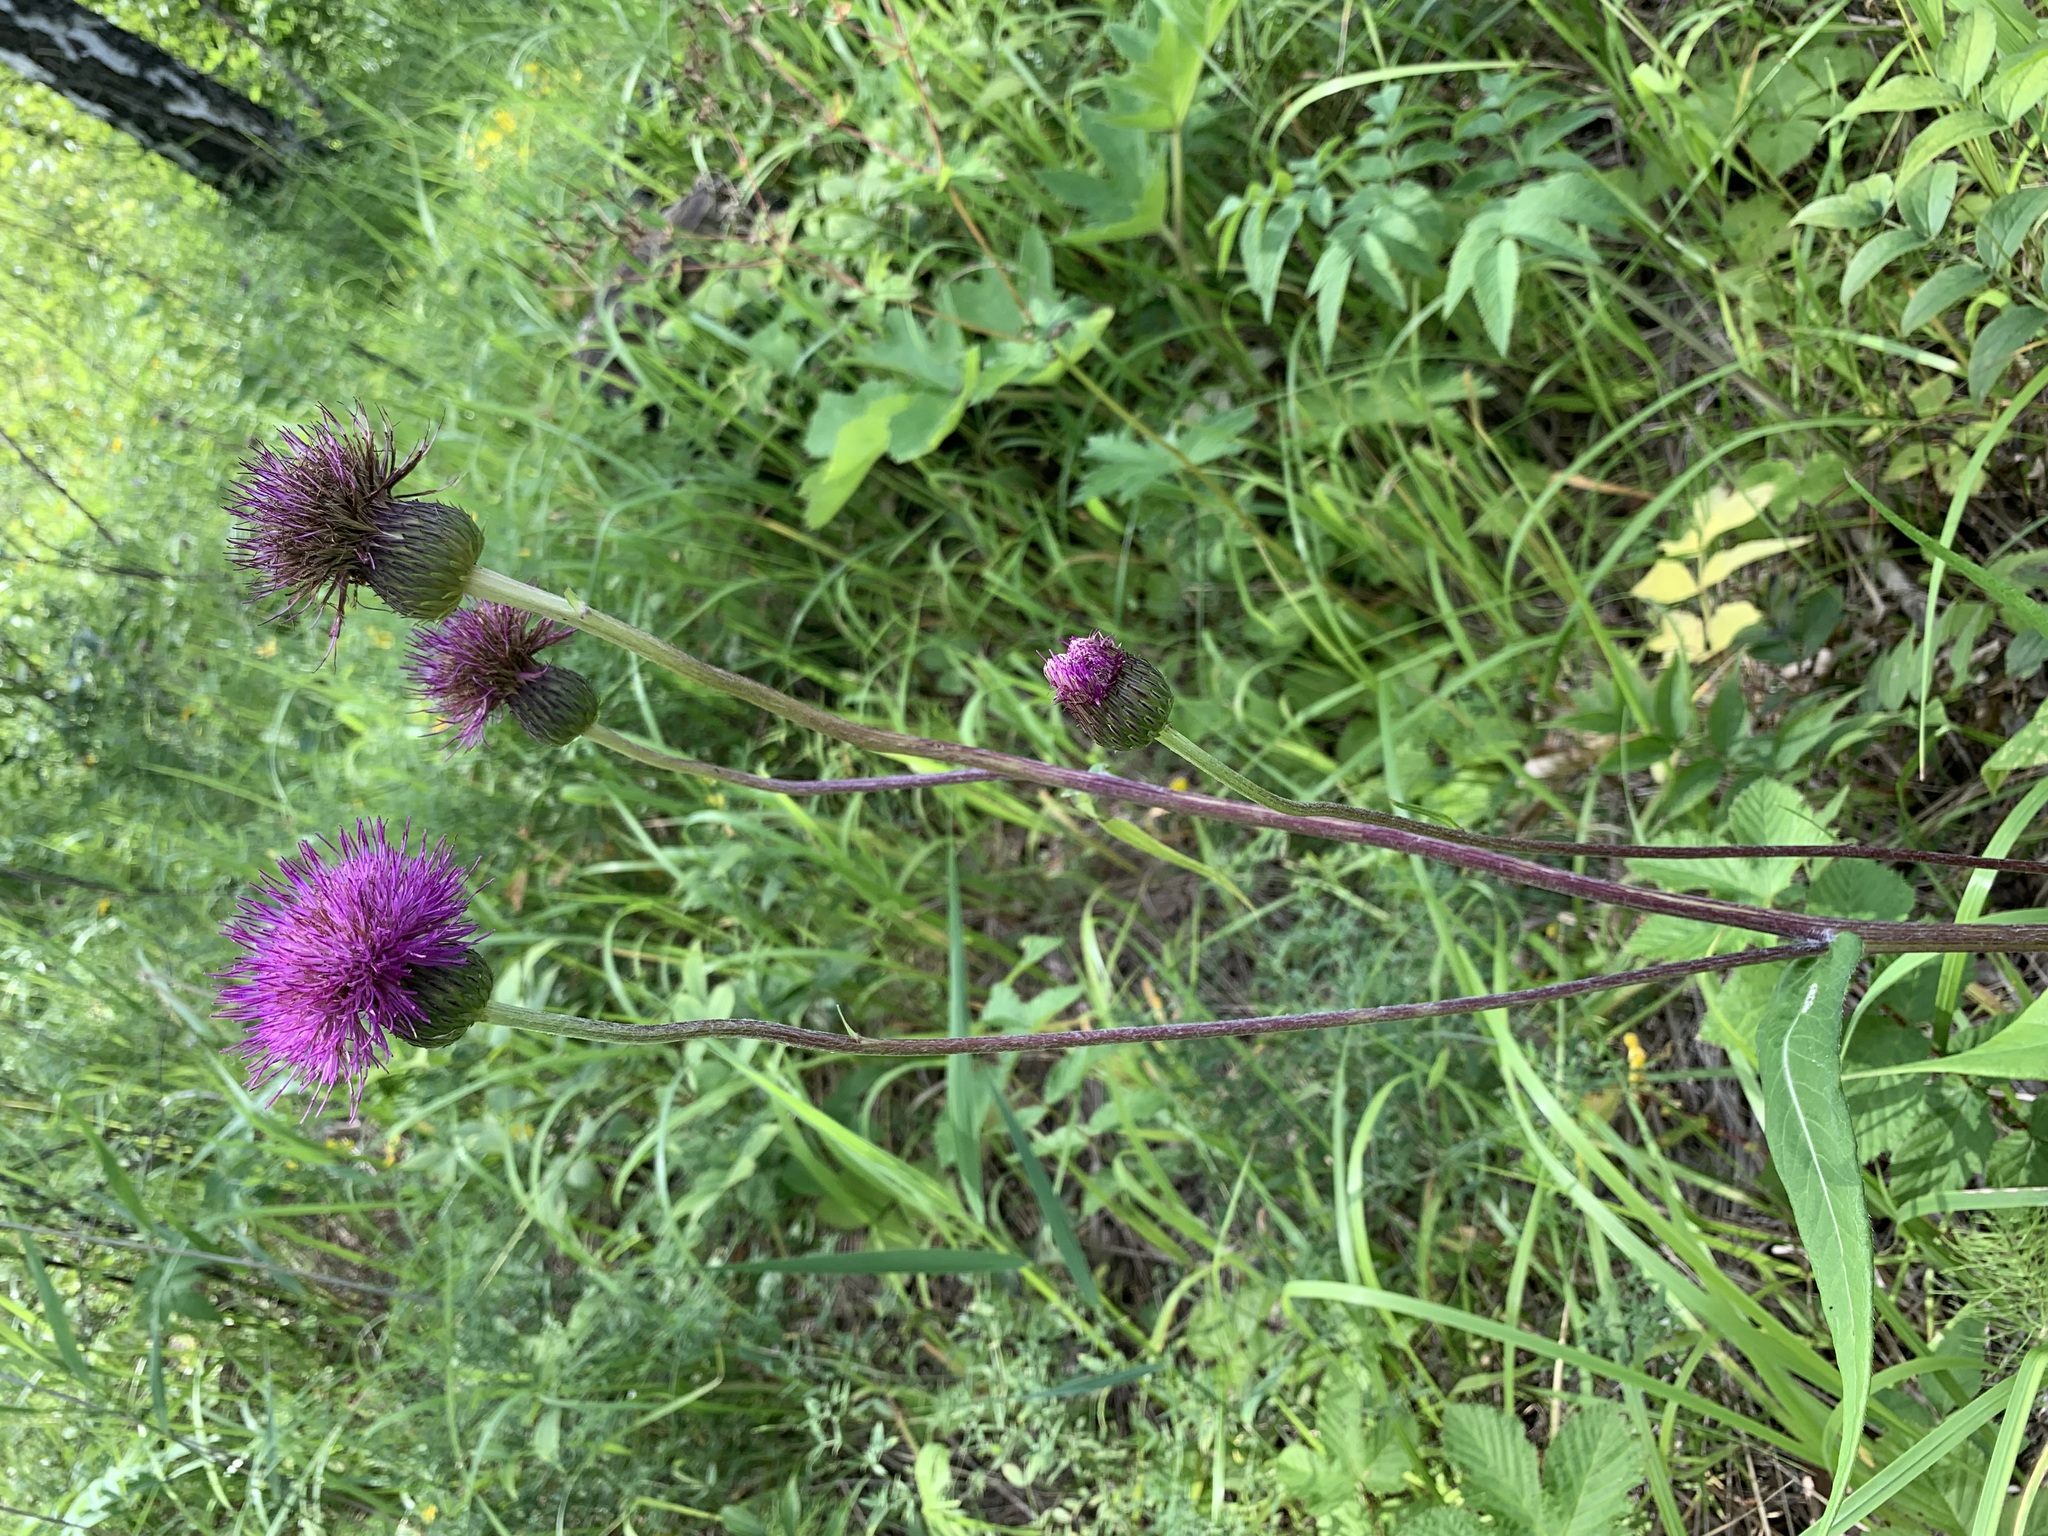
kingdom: Plantae
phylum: Tracheophyta
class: Magnoliopsida
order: Asterales
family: Asteraceae
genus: Cirsium
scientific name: Cirsium heterophyllum
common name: Melancholy thistle
